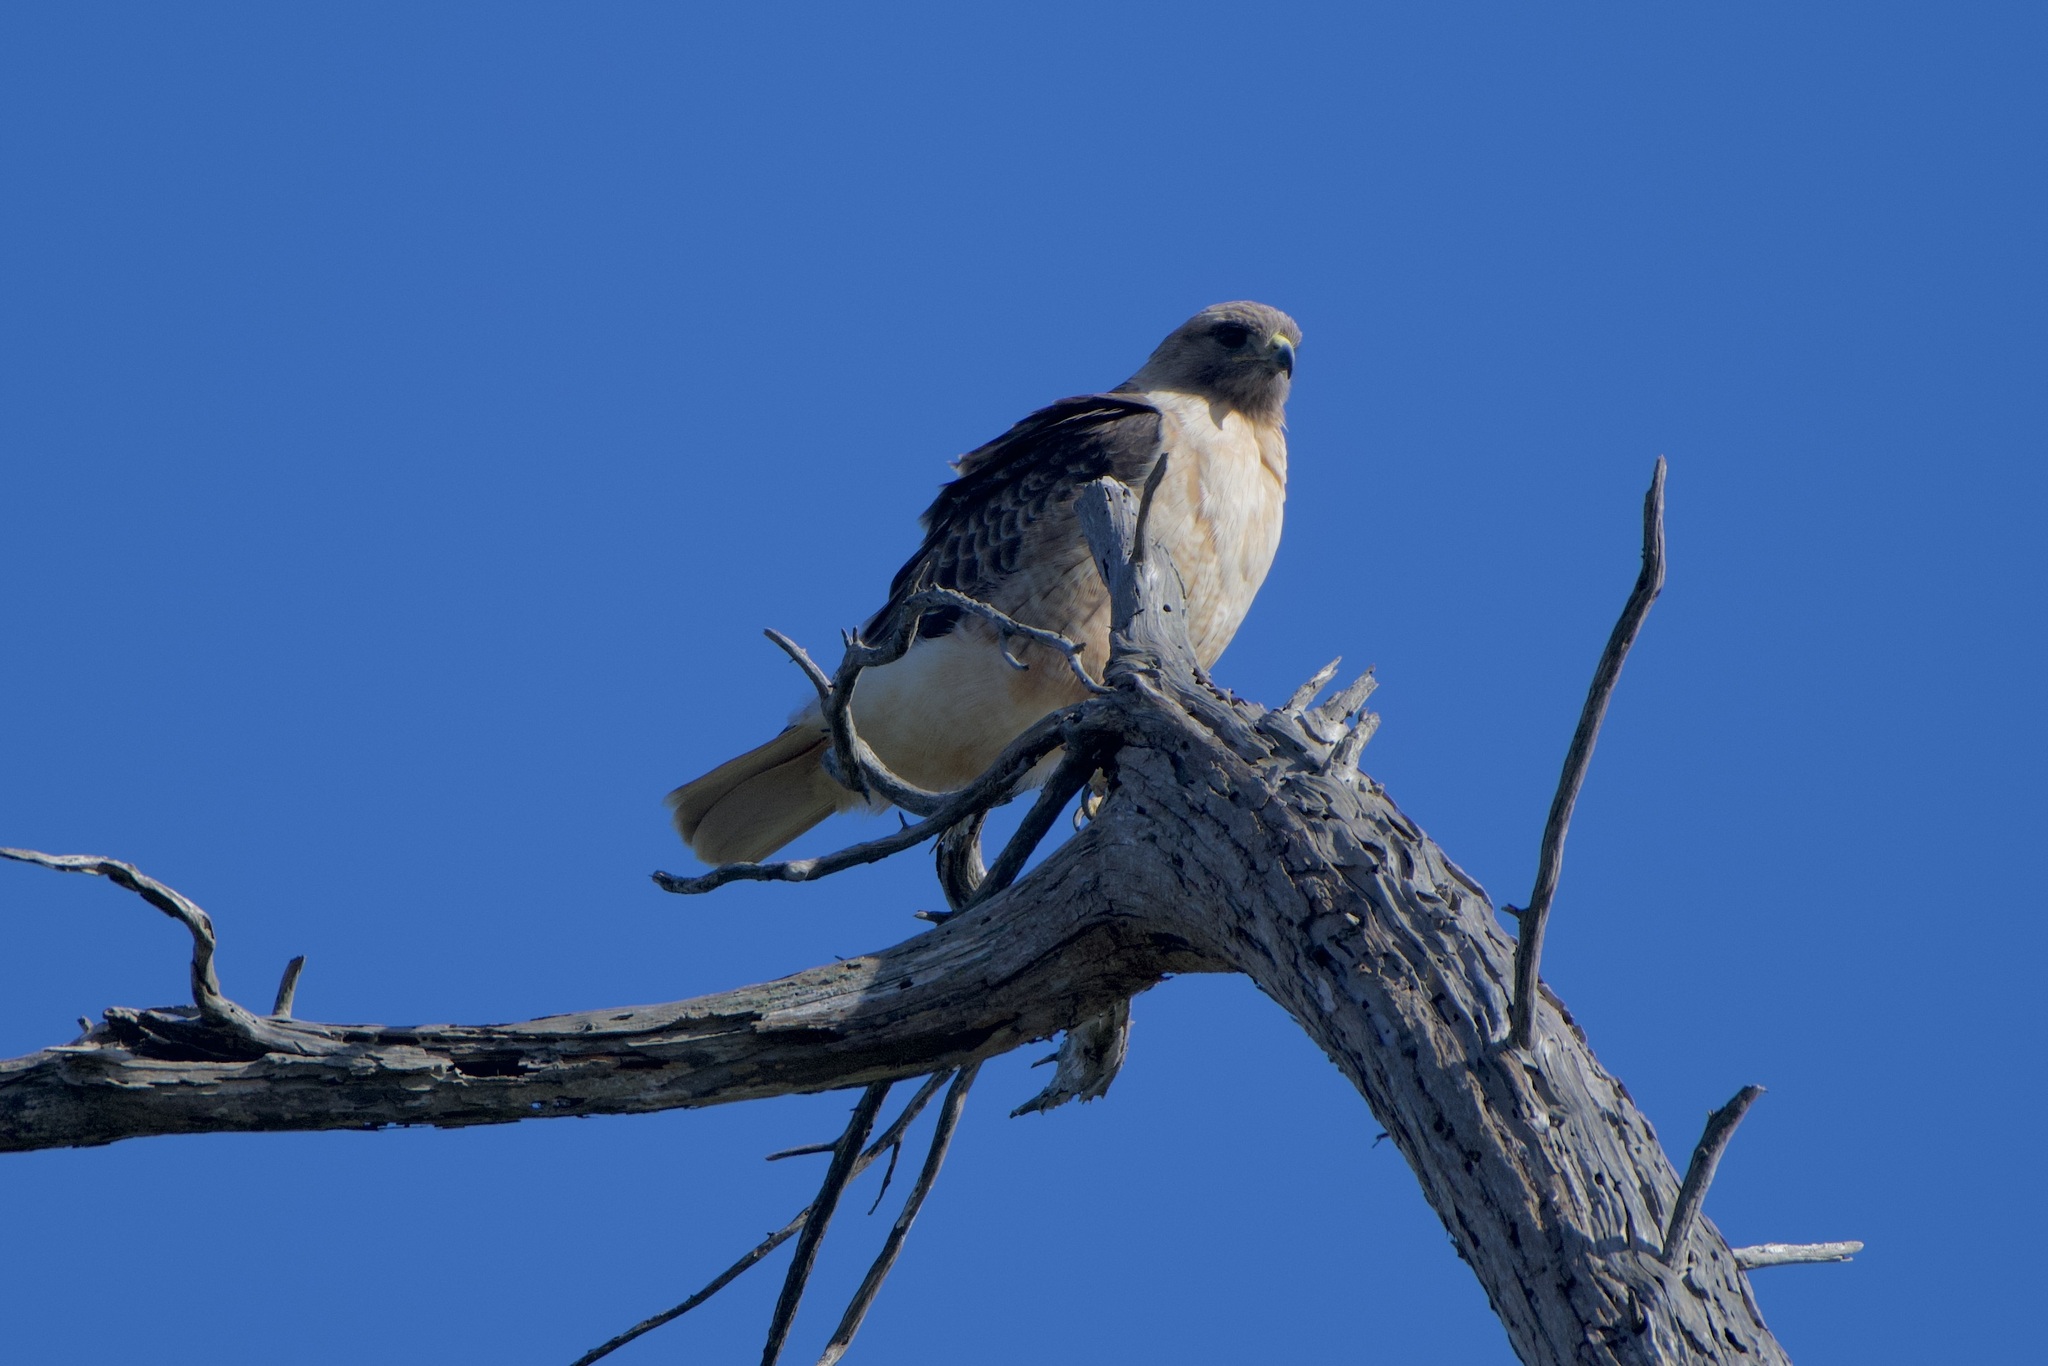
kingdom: Animalia
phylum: Chordata
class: Aves
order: Accipitriformes
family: Accipitridae
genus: Buteo
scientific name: Buteo jamaicensis
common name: Red-tailed hawk
